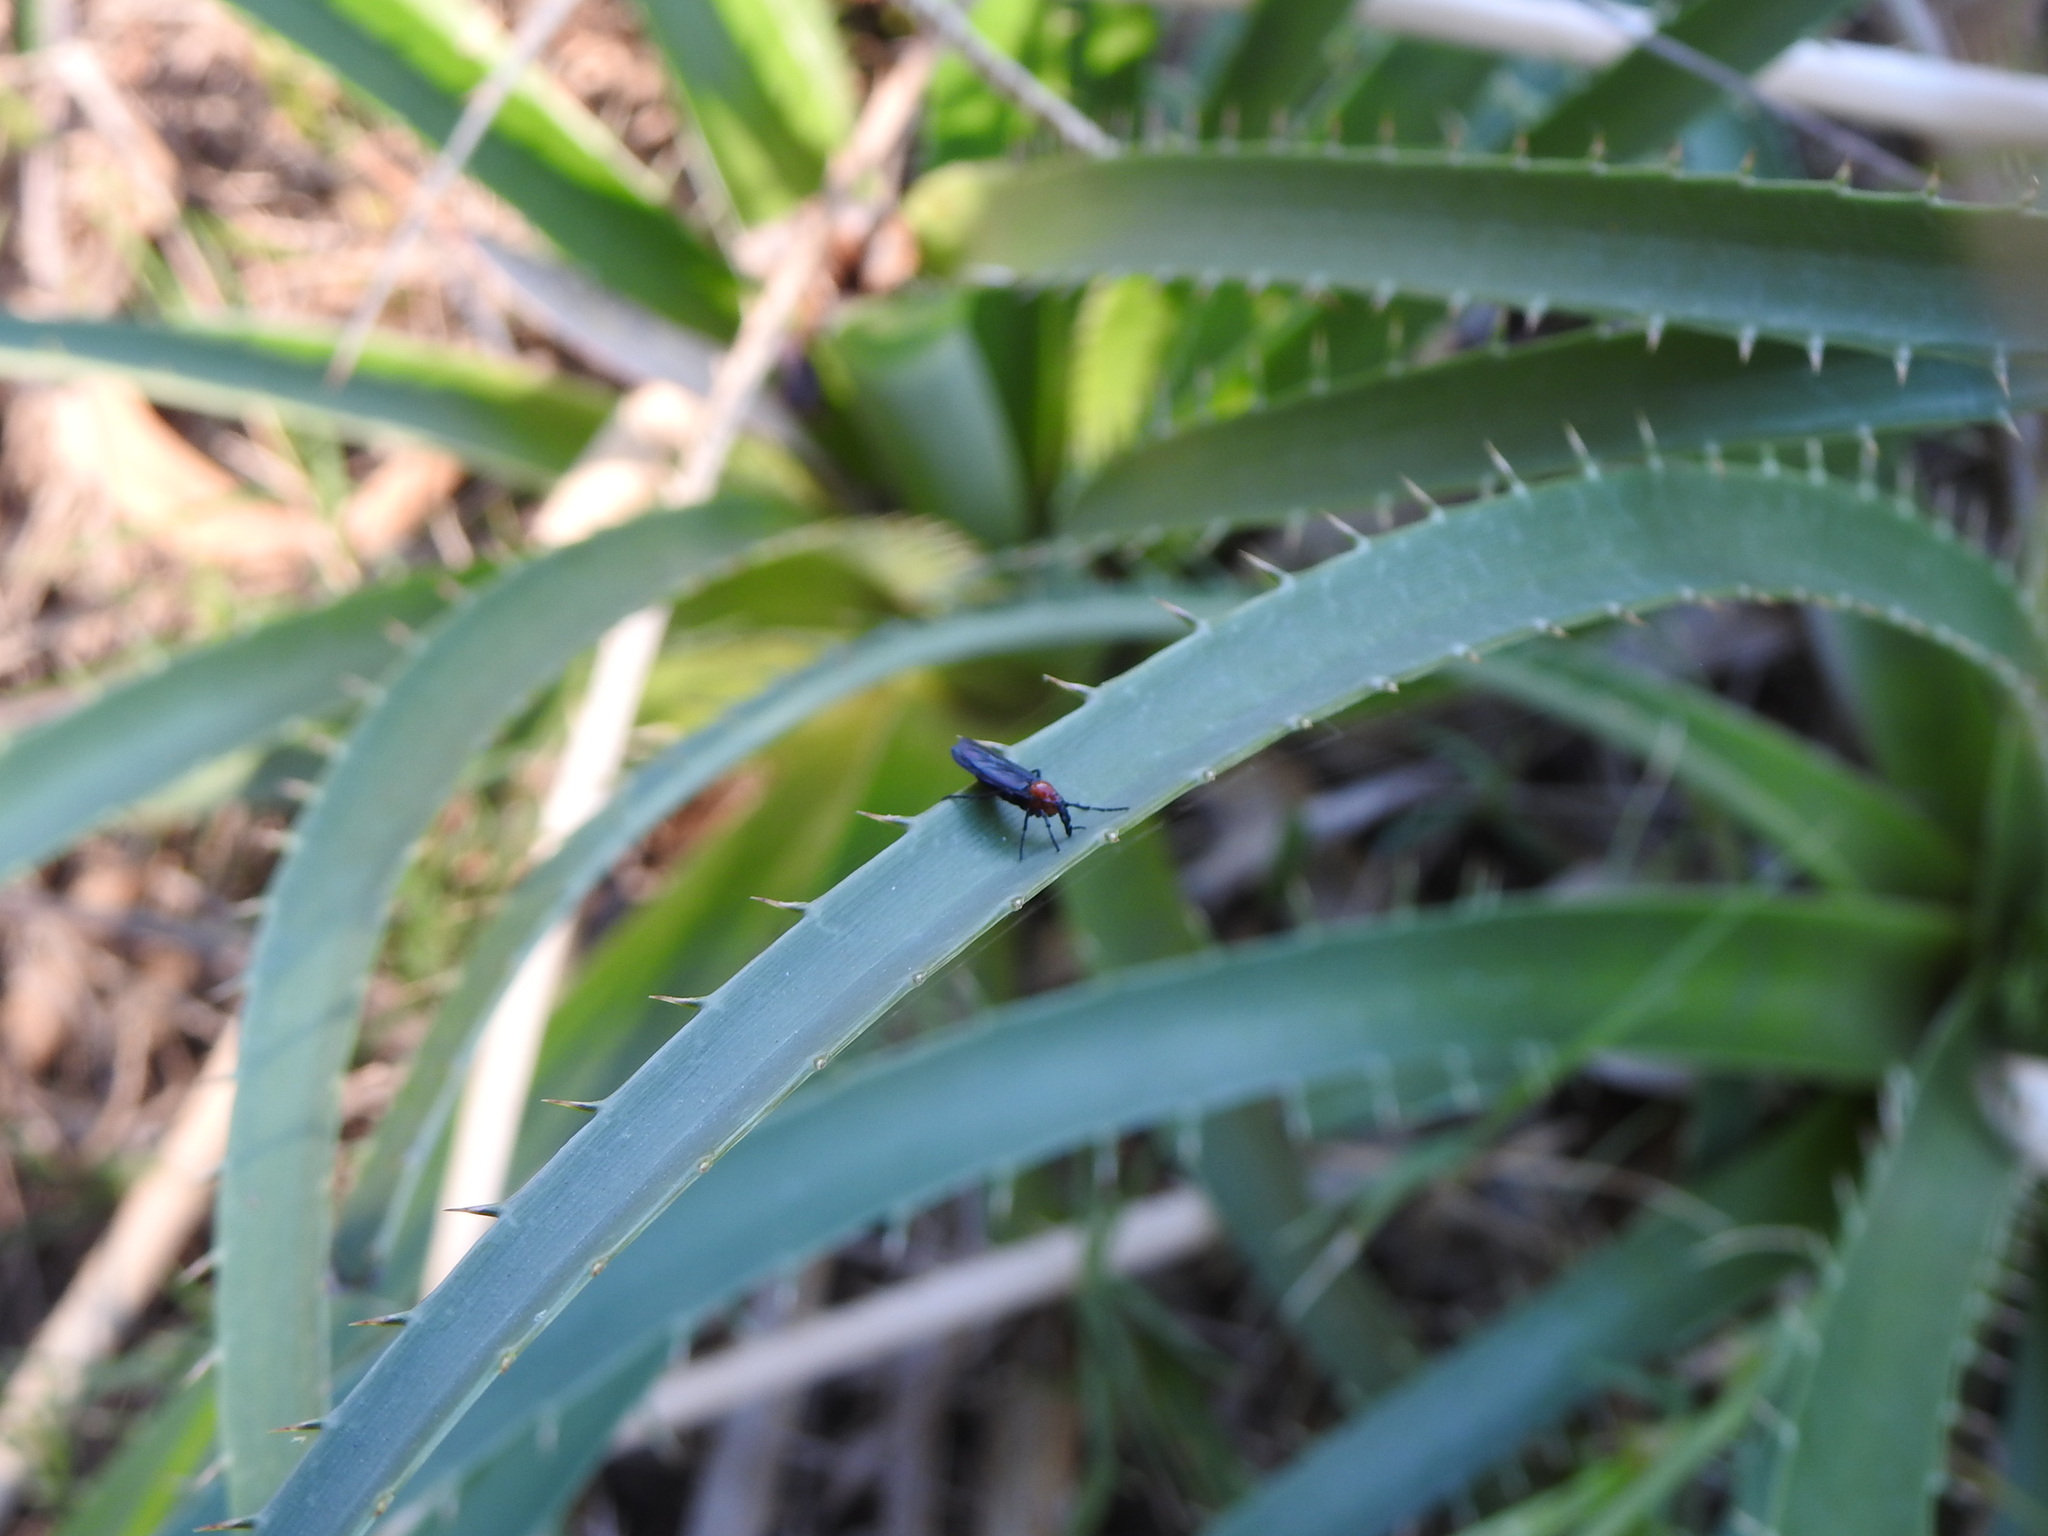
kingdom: Animalia
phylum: Arthropoda
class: Insecta
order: Diptera
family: Bibionidae
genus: Dilophus
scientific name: Dilophus pectoralis
